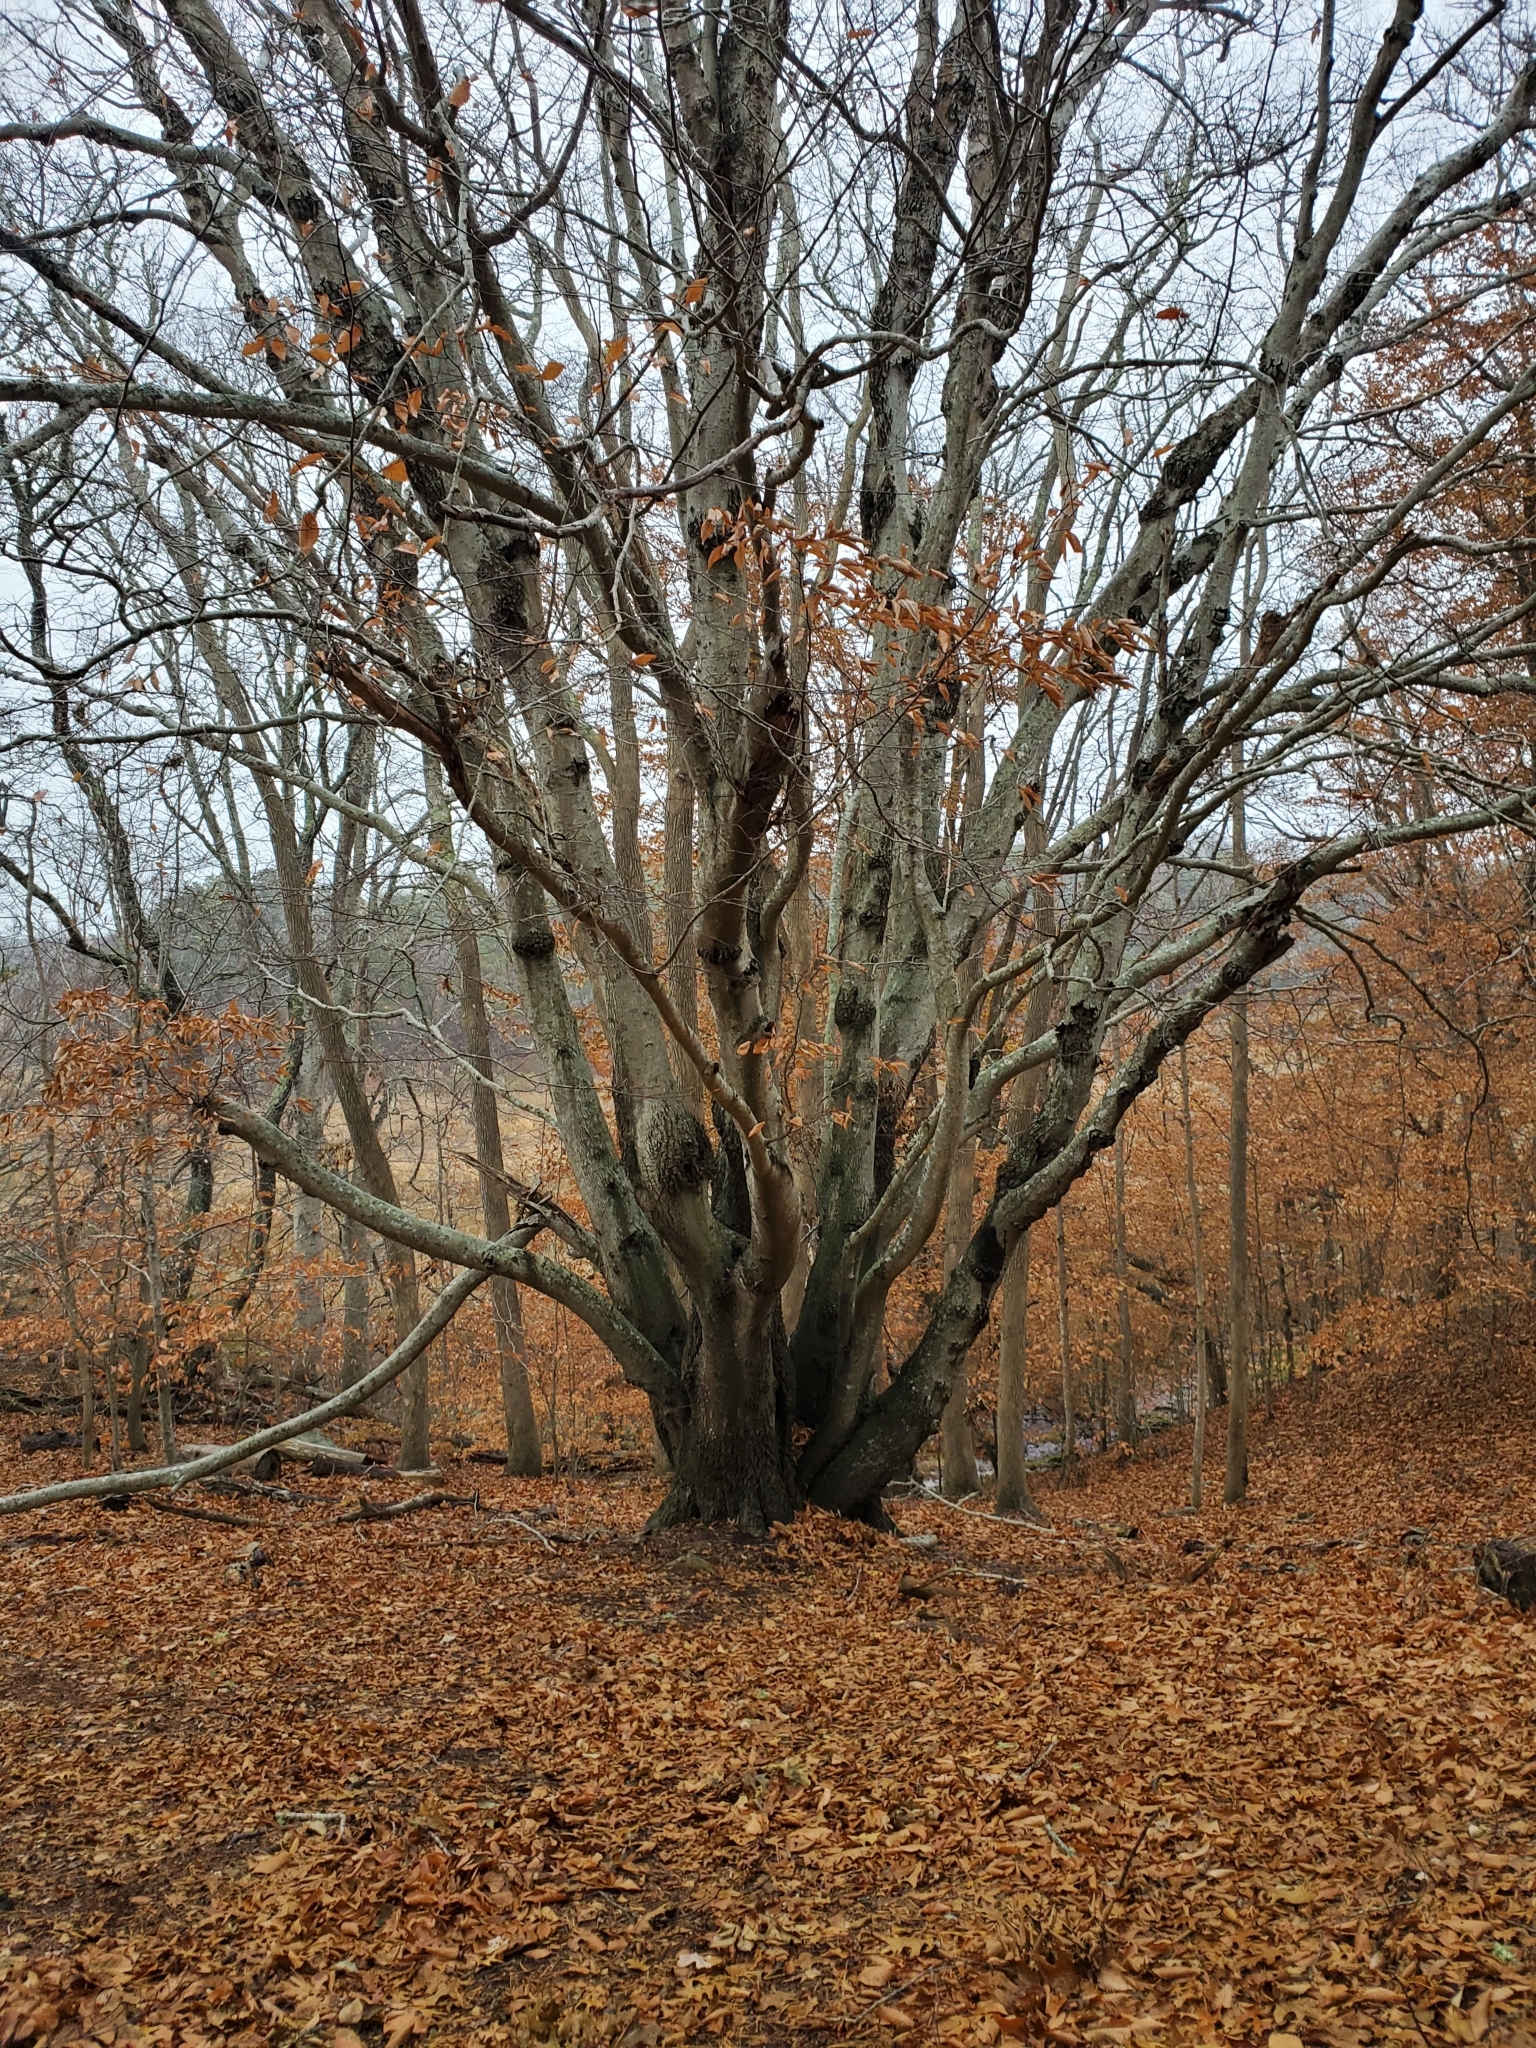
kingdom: Plantae
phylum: Tracheophyta
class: Magnoliopsida
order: Fagales
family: Fagaceae
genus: Fagus
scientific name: Fagus grandifolia
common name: American beech
